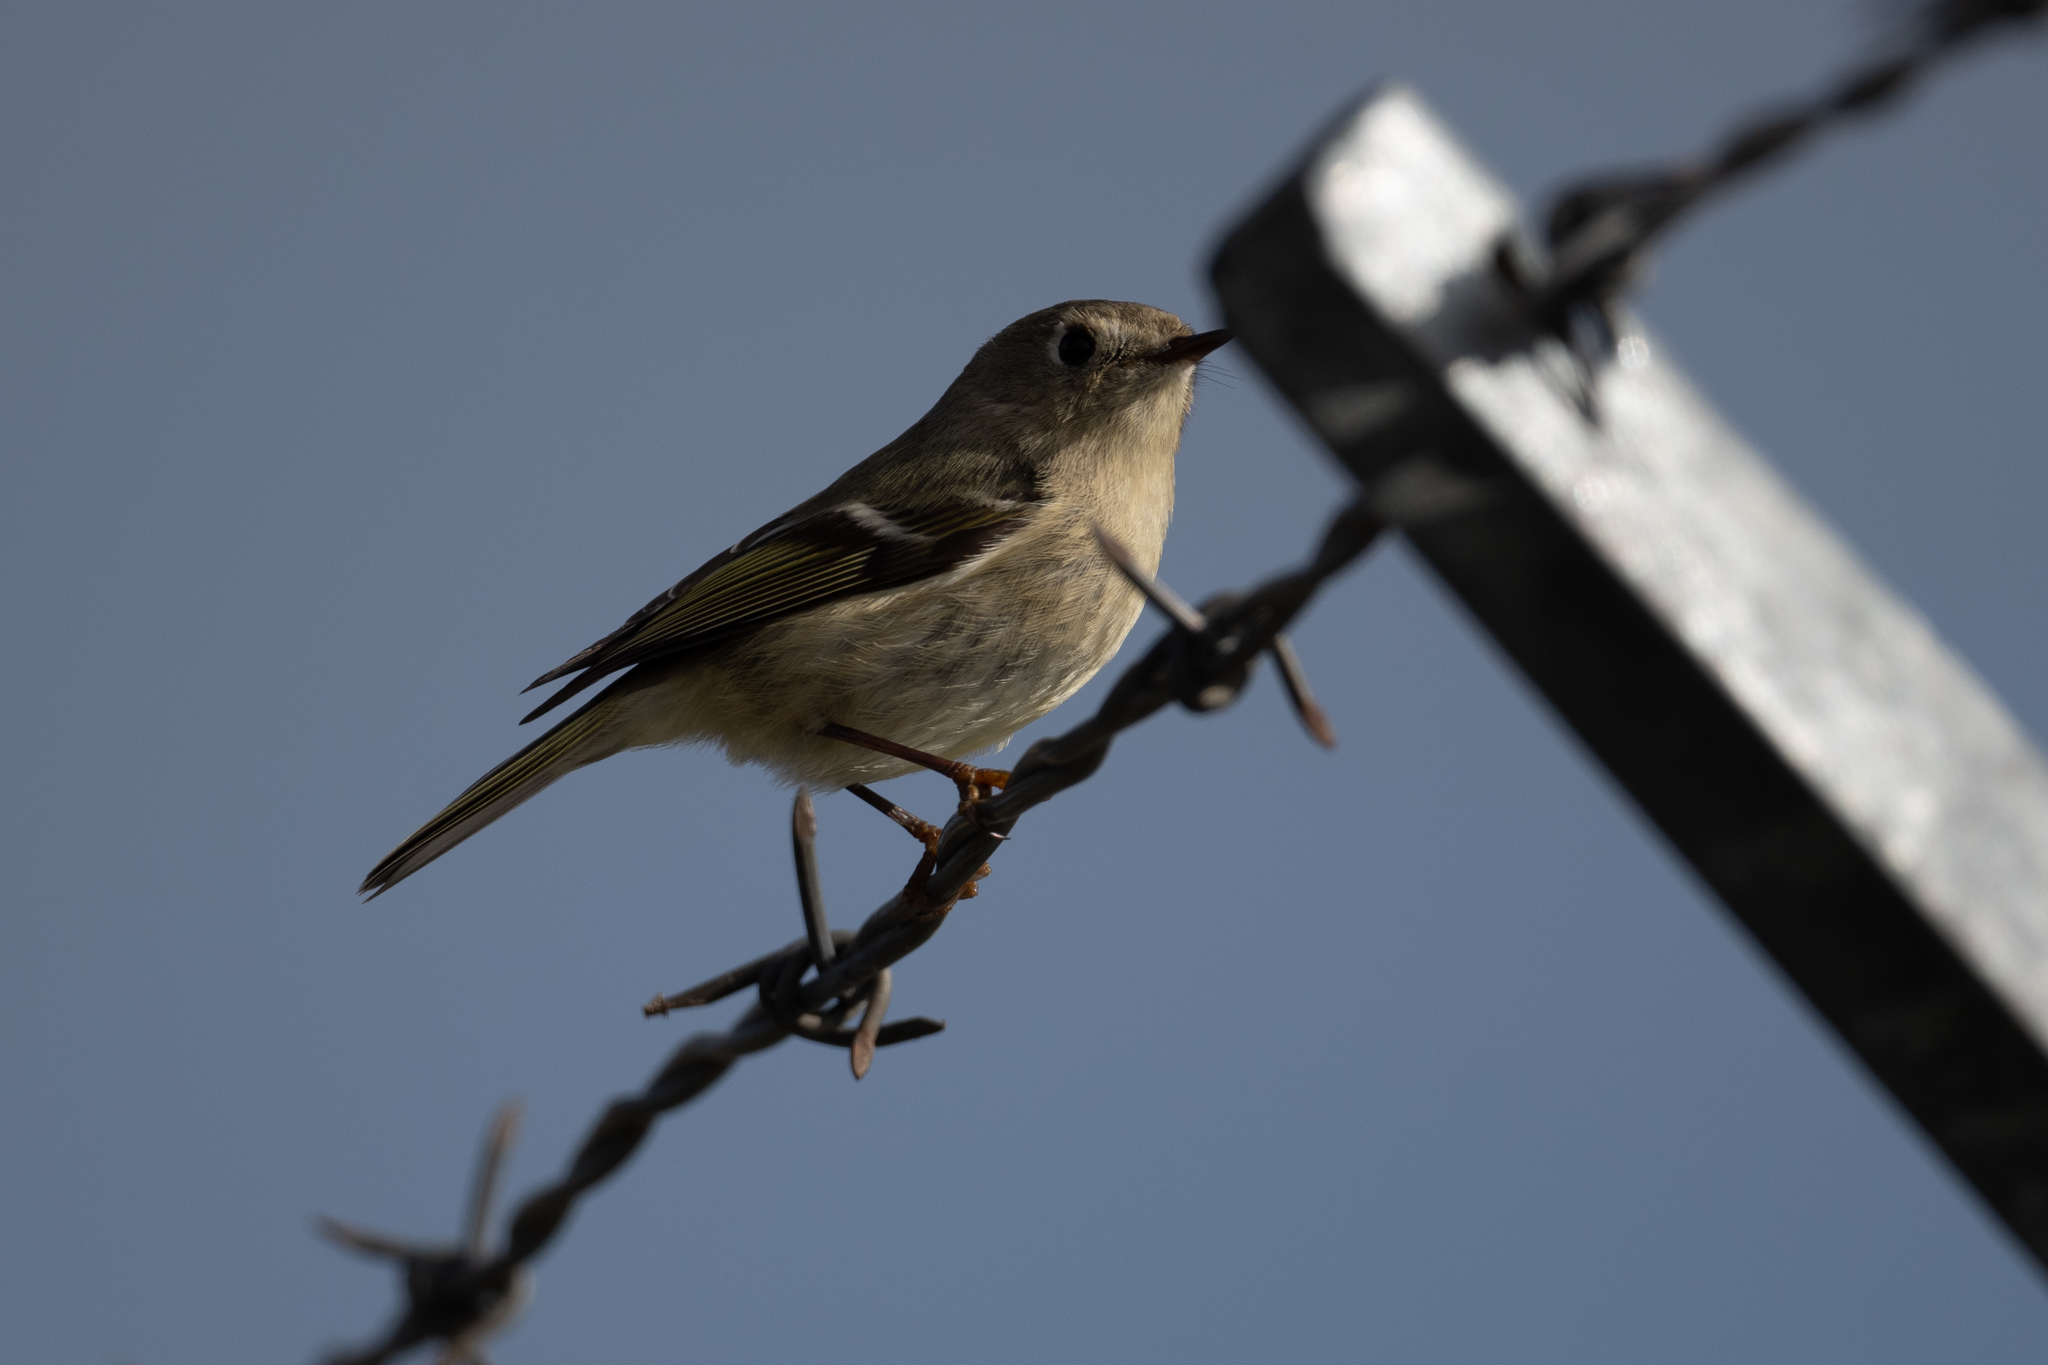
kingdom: Animalia
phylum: Chordata
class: Aves
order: Passeriformes
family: Regulidae
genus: Regulus
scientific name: Regulus calendula
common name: Ruby-crowned kinglet
